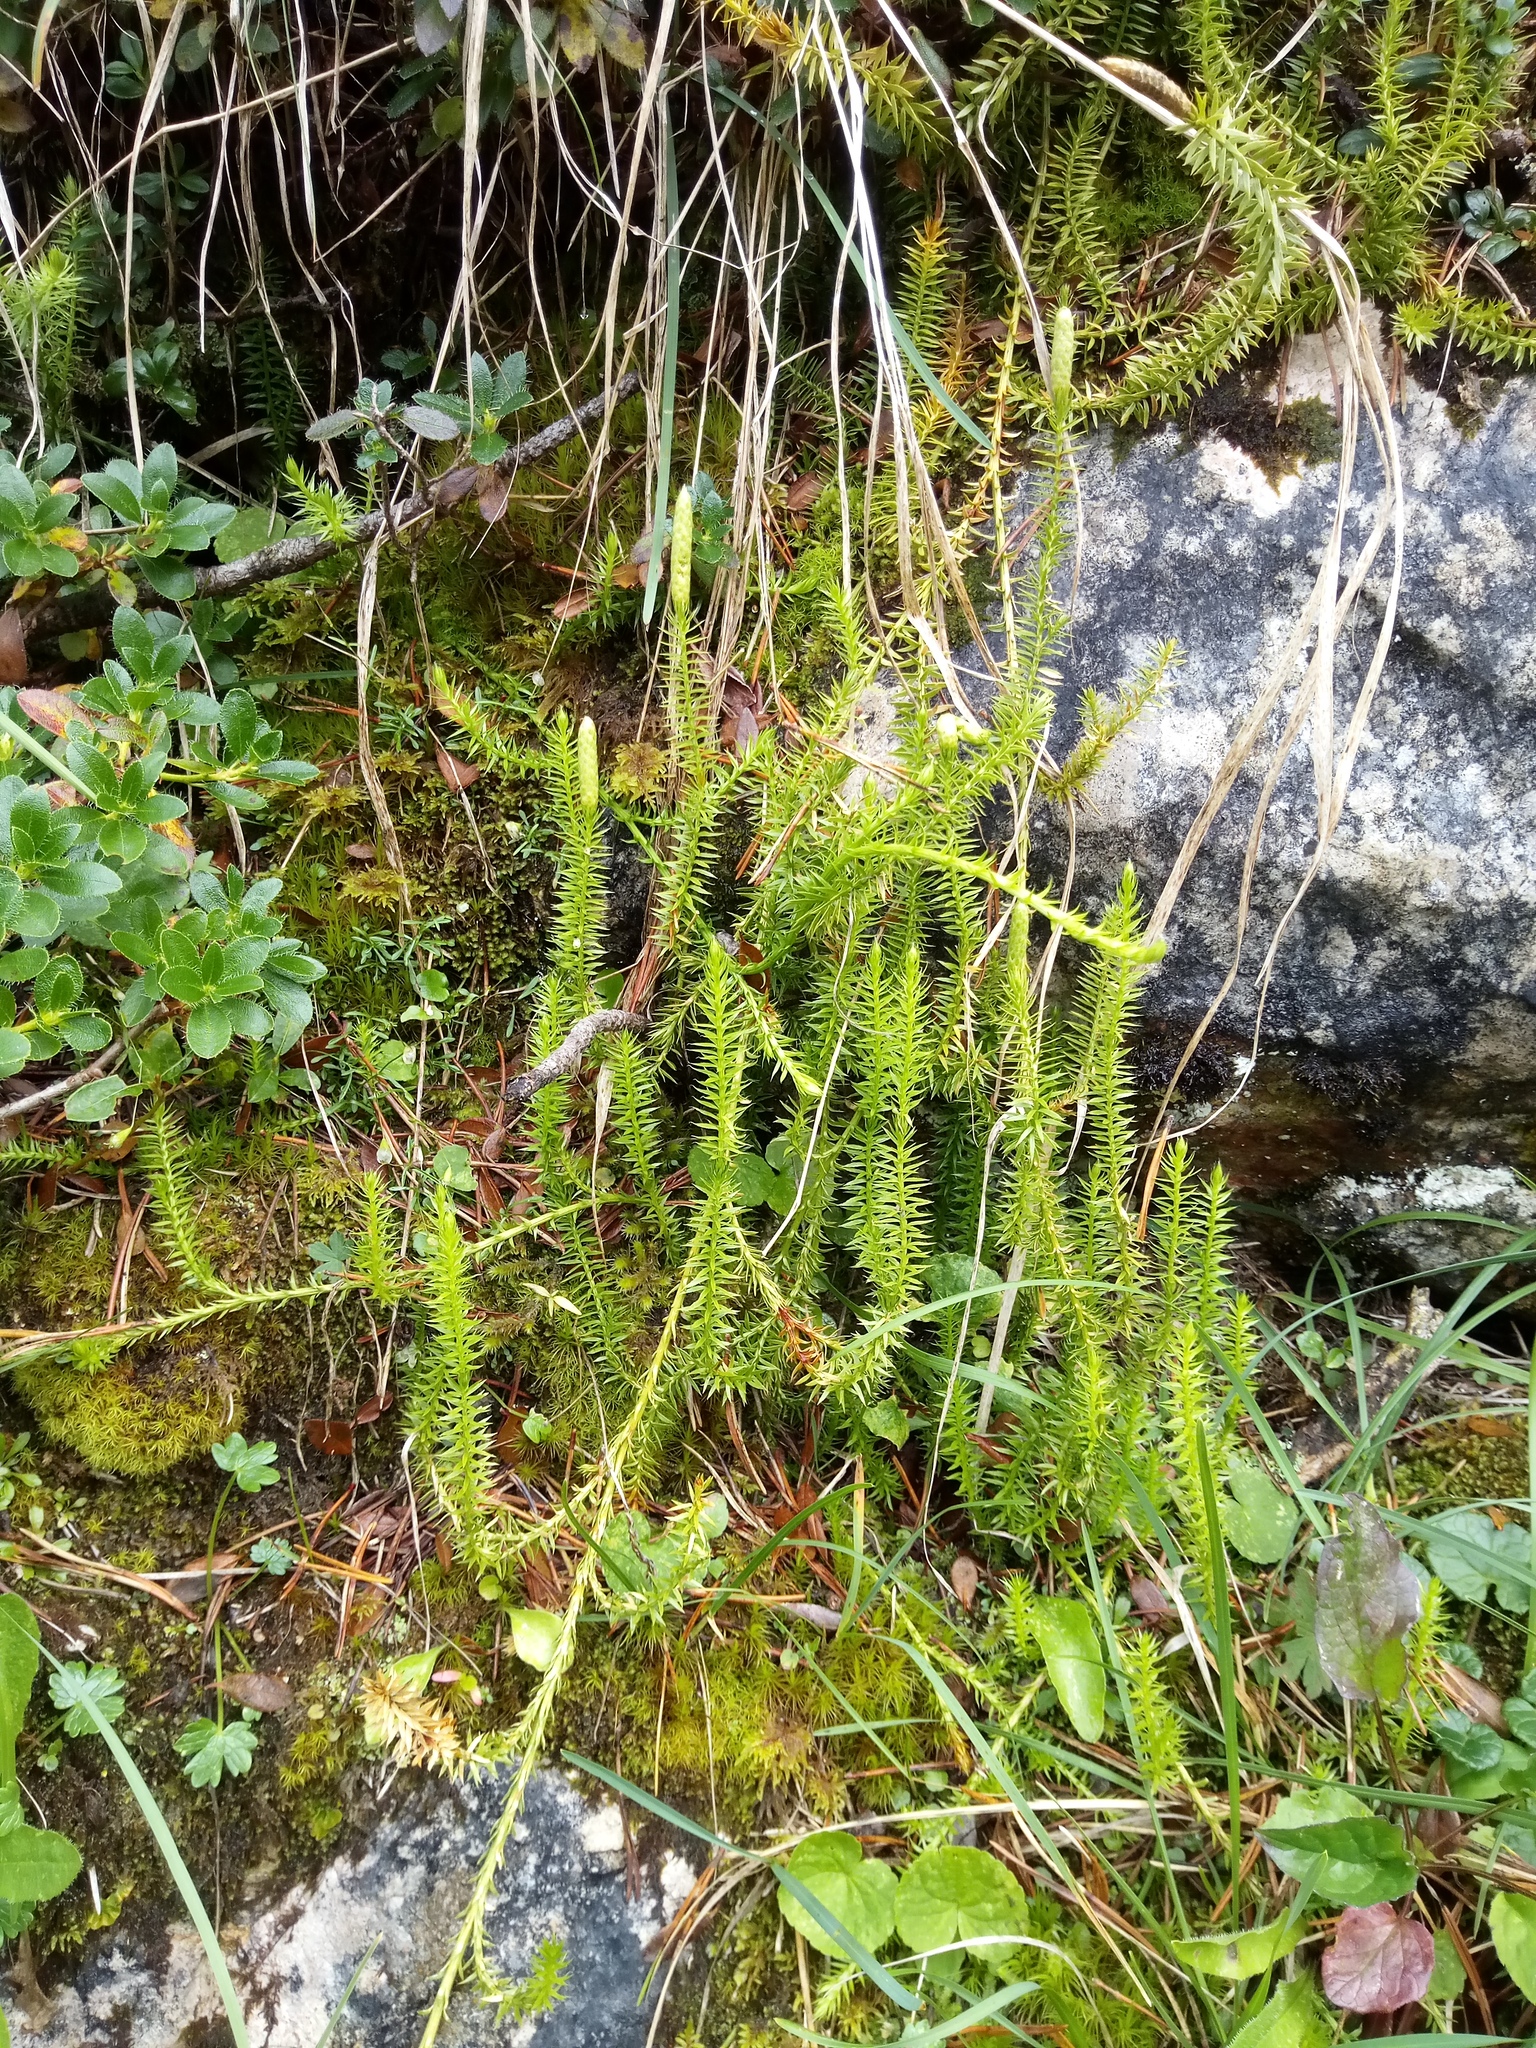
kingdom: Plantae
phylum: Tracheophyta
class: Lycopodiopsida
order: Lycopodiales
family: Lycopodiaceae
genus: Spinulum
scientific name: Spinulum annotinum
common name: Interrupted club-moss
